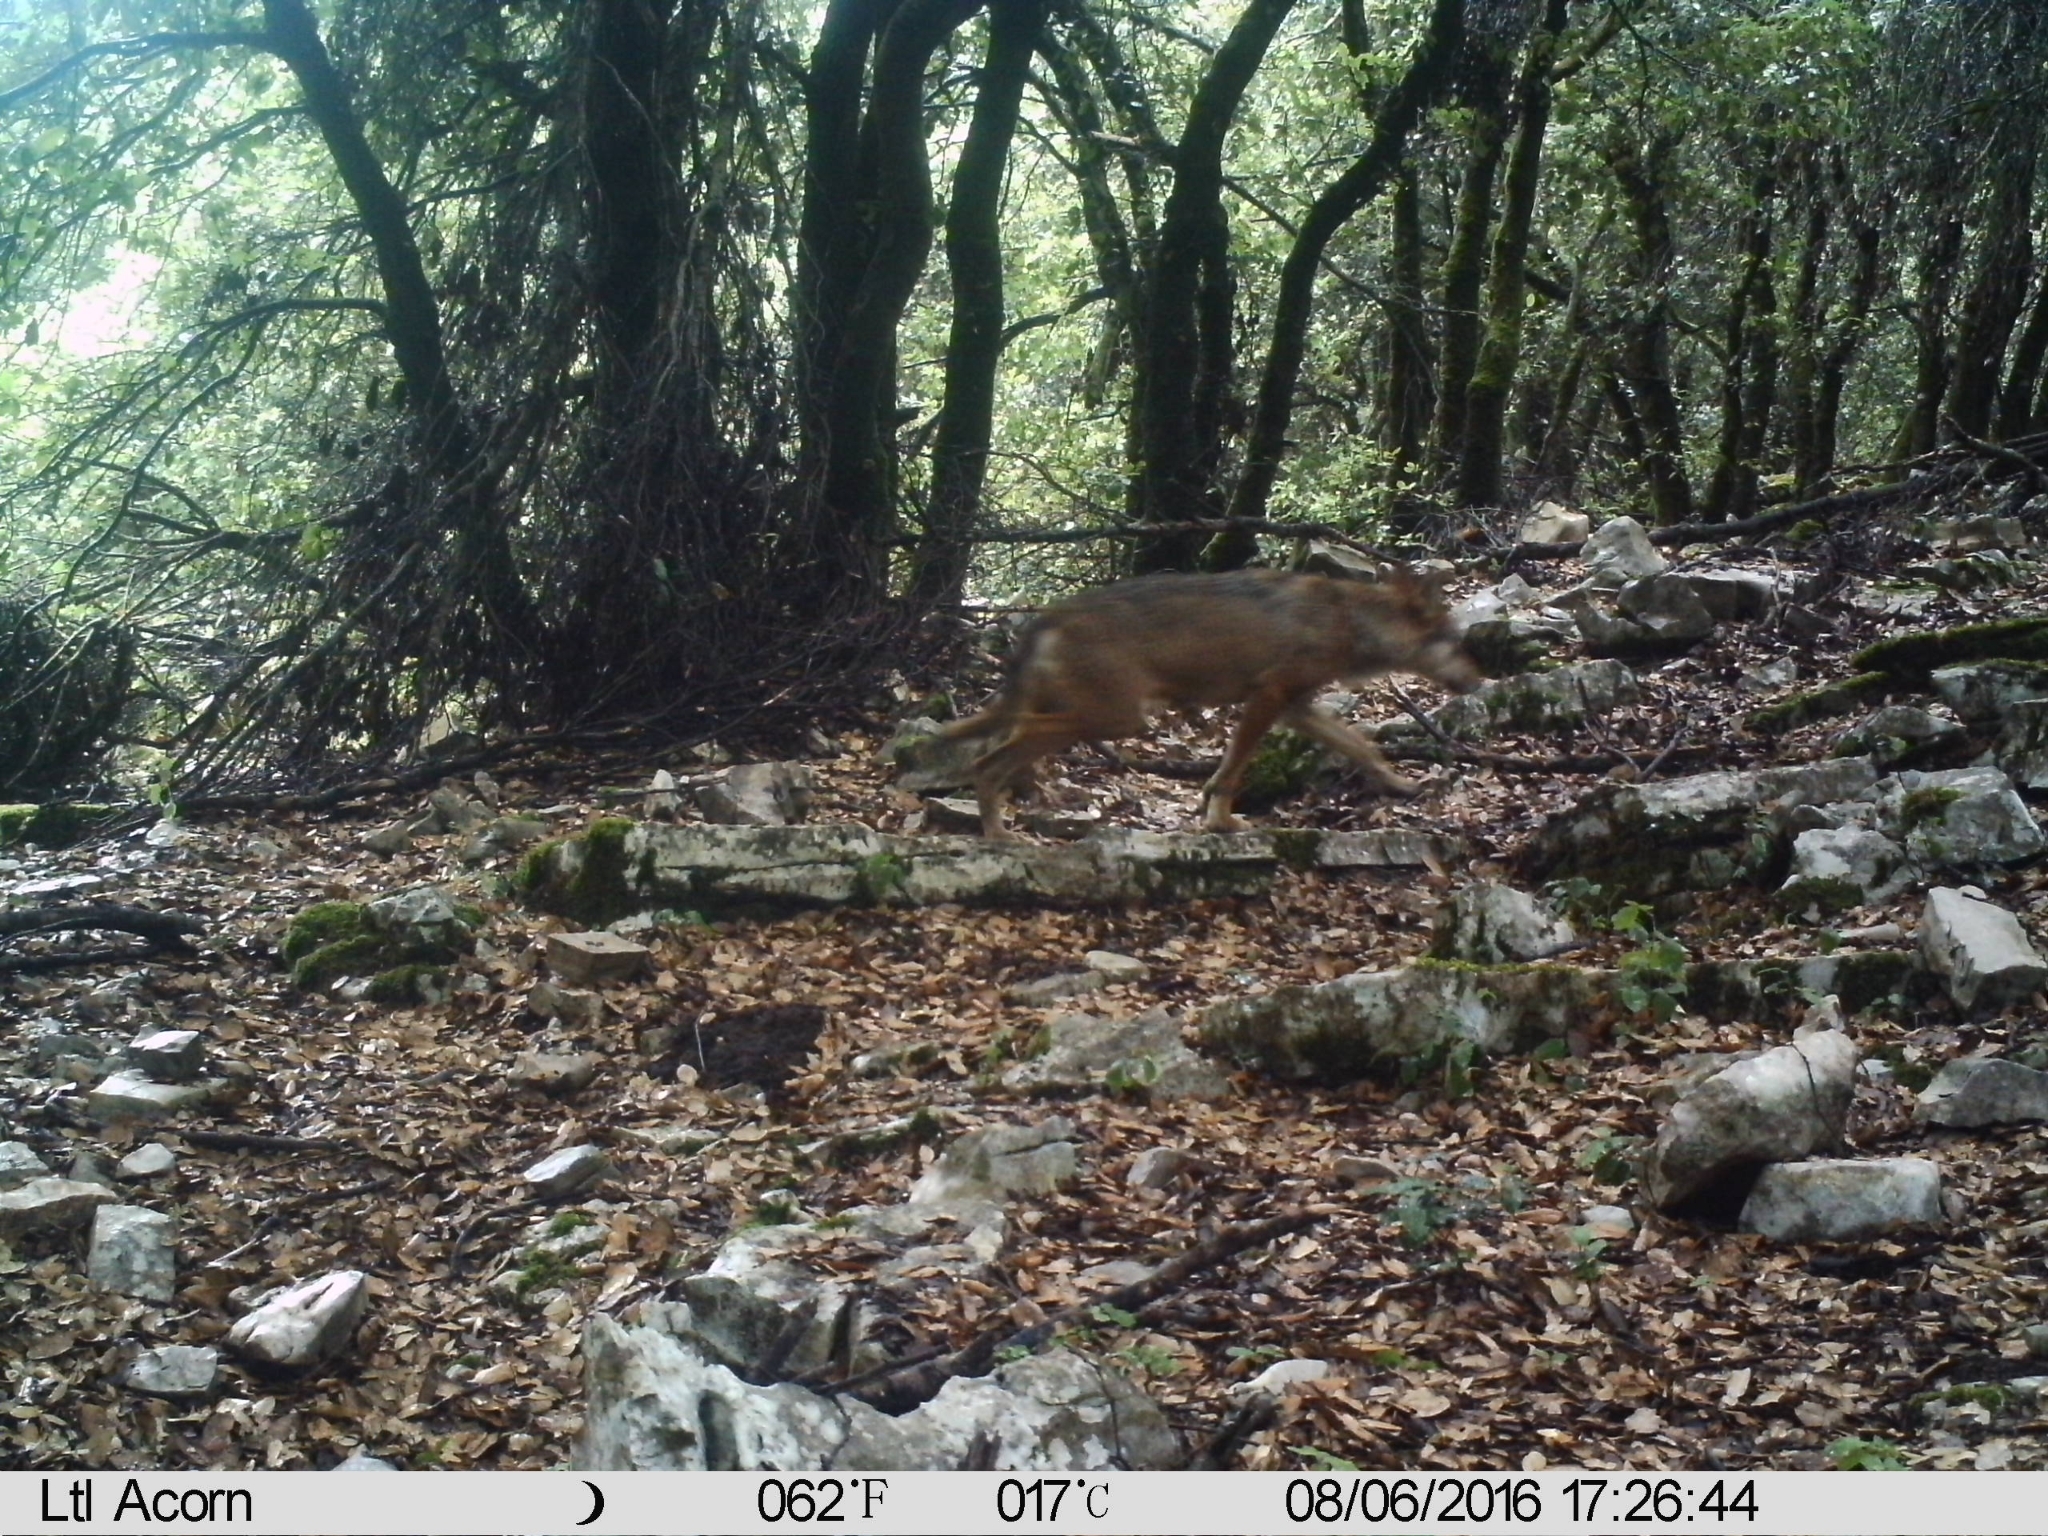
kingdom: Animalia
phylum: Chordata
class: Mammalia
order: Carnivora
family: Canidae
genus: Canis
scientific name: Canis lupus
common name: Gray wolf
